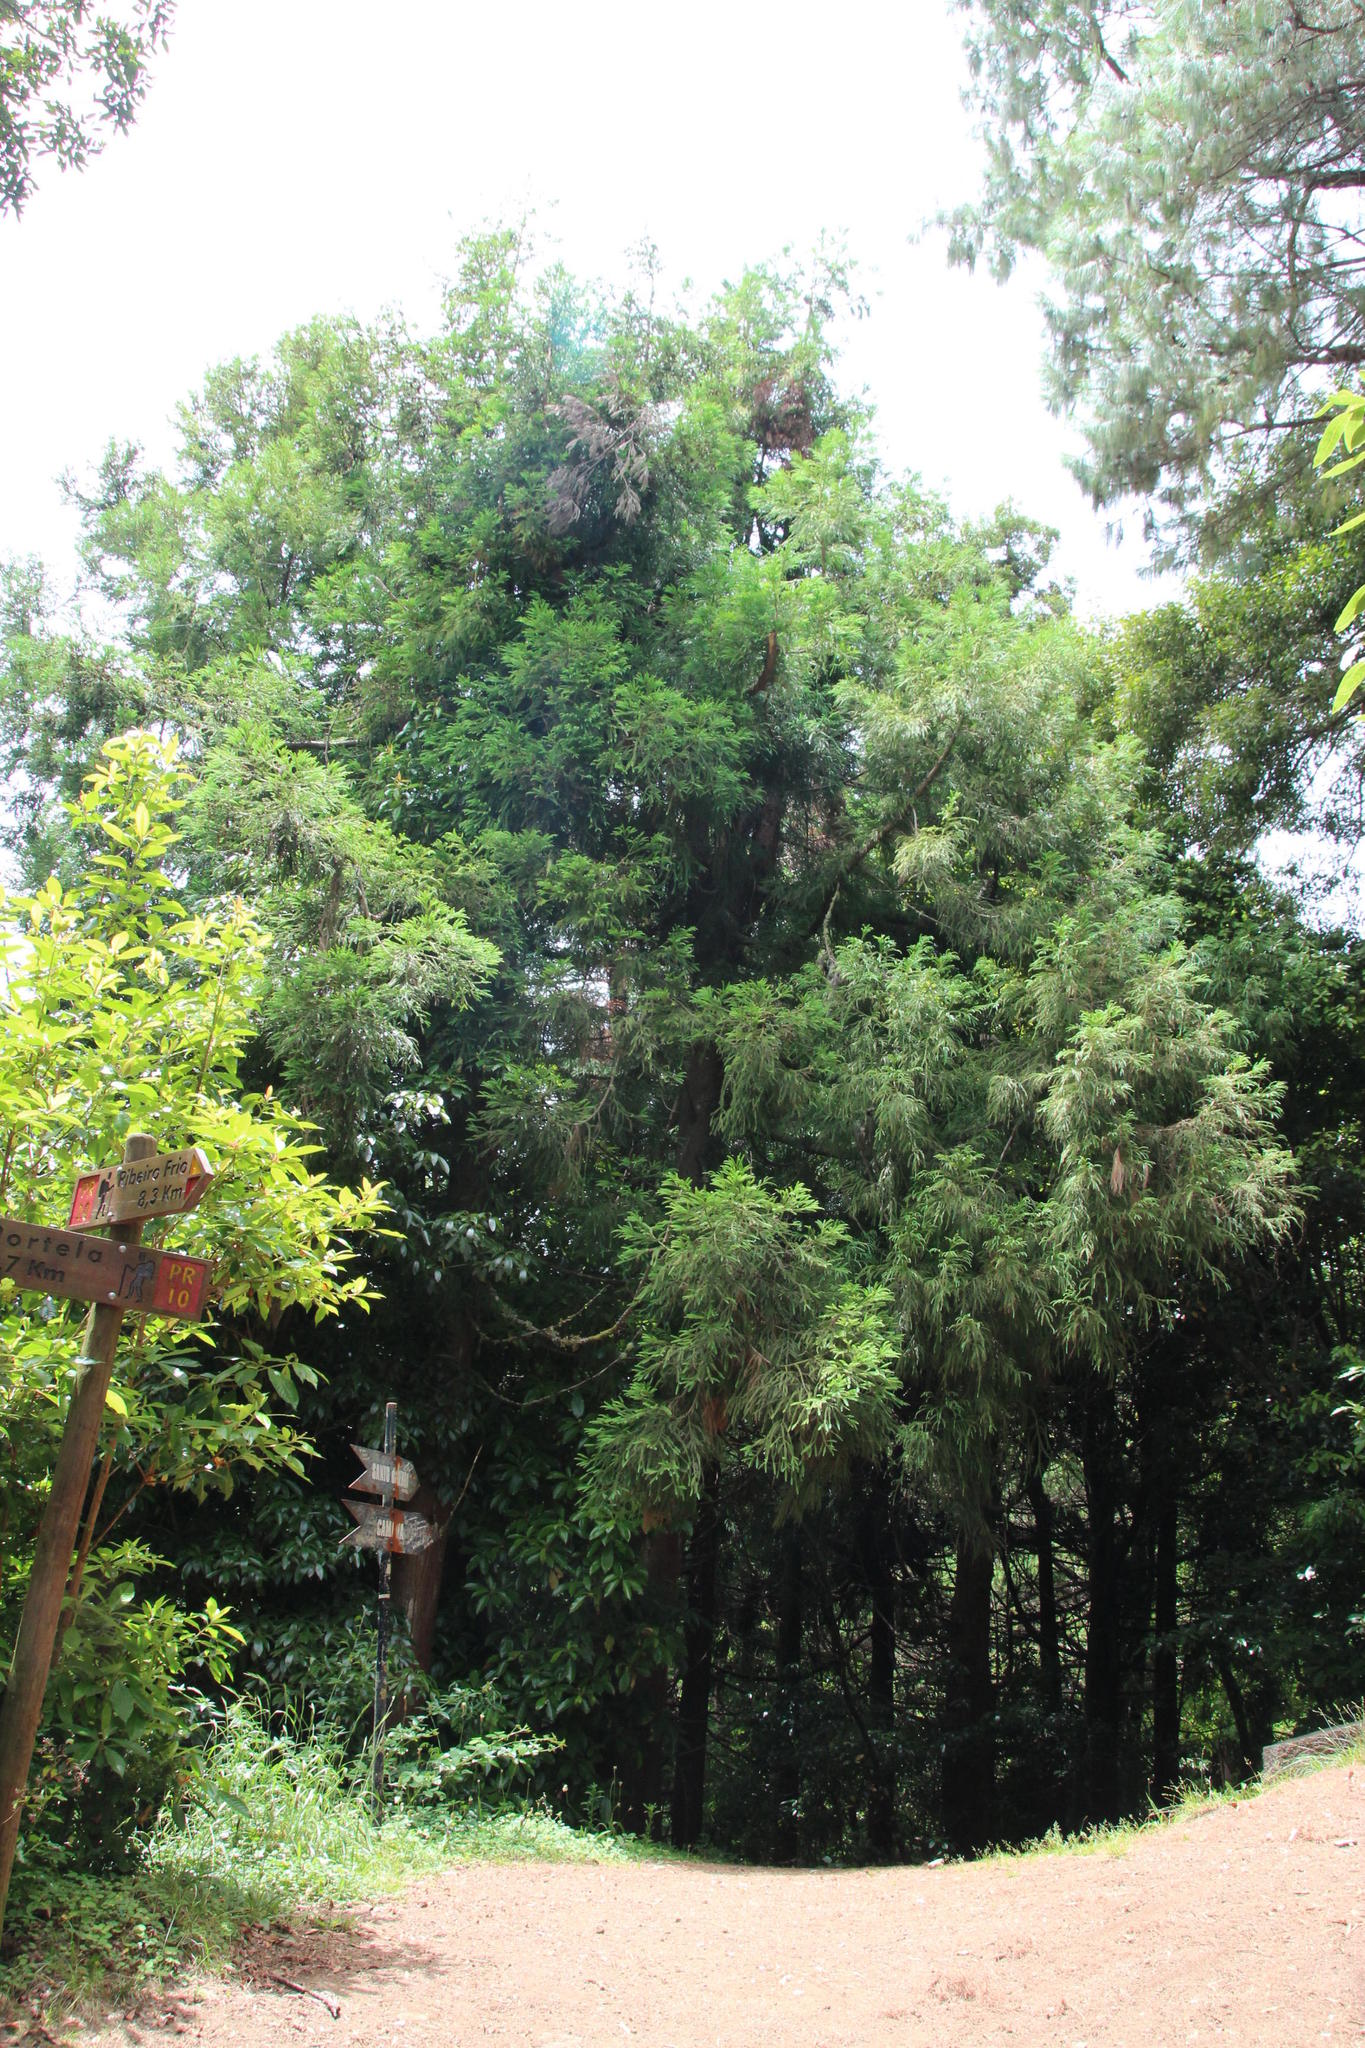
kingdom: Plantae
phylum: Tracheophyta
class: Pinopsida
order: Pinales
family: Cupressaceae
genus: Cryptomeria
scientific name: Cryptomeria japonica
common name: Japanese cedar
